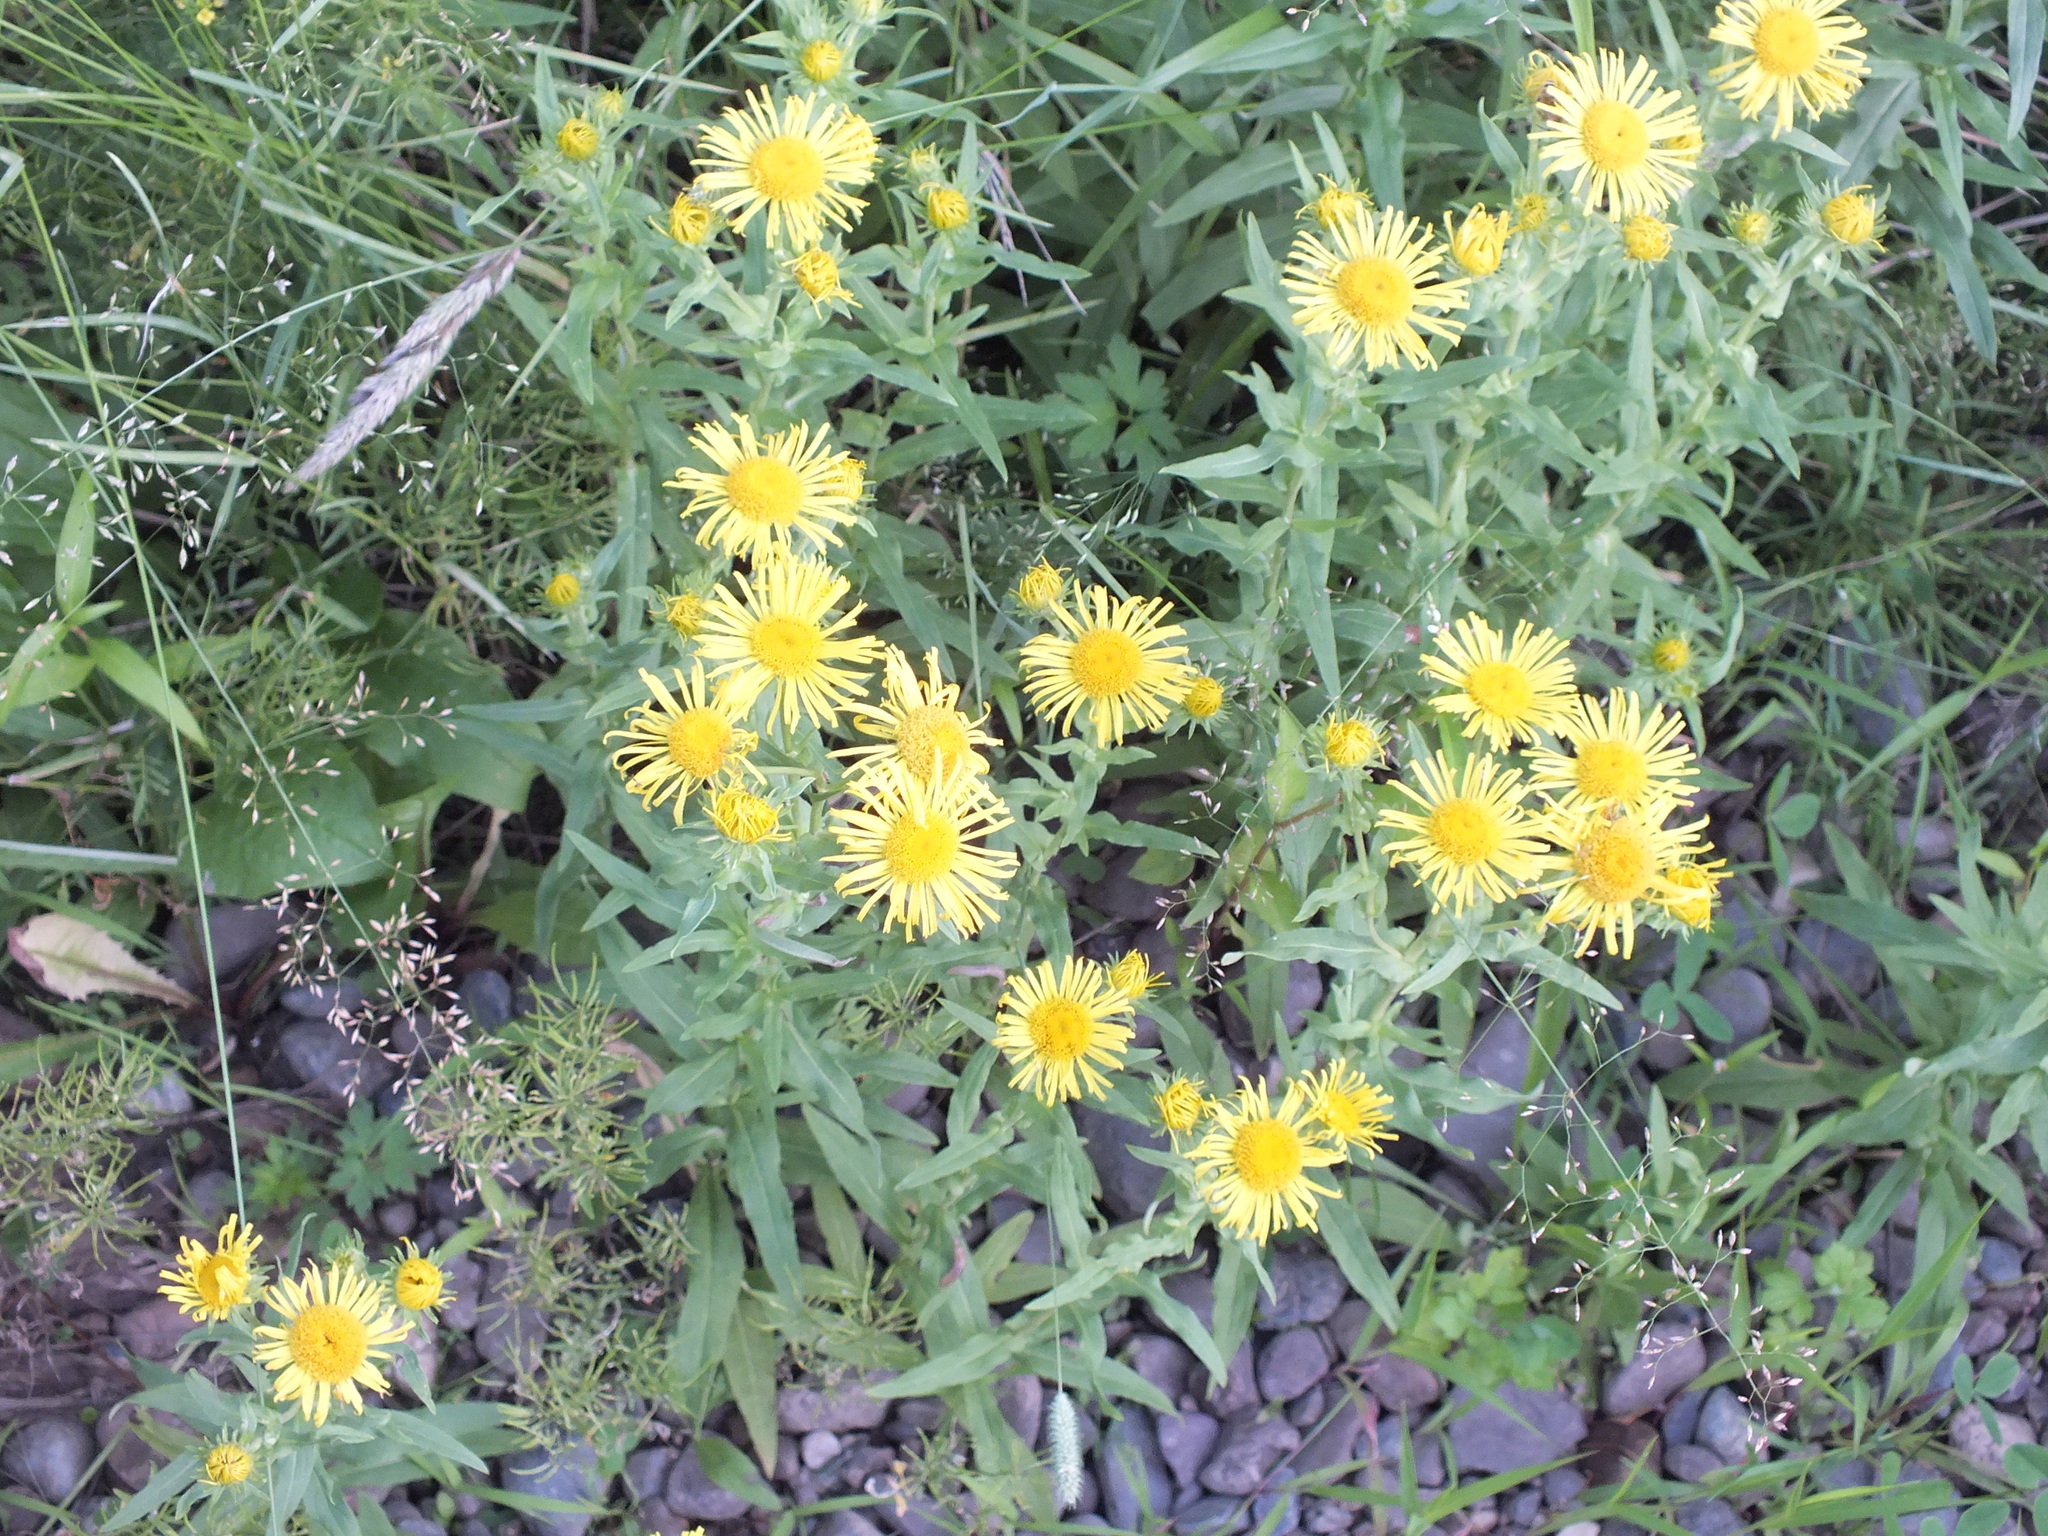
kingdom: Plantae
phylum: Tracheophyta
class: Magnoliopsida
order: Asterales
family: Asteraceae
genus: Pentanema
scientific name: Pentanema britannicum
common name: British elecampane
